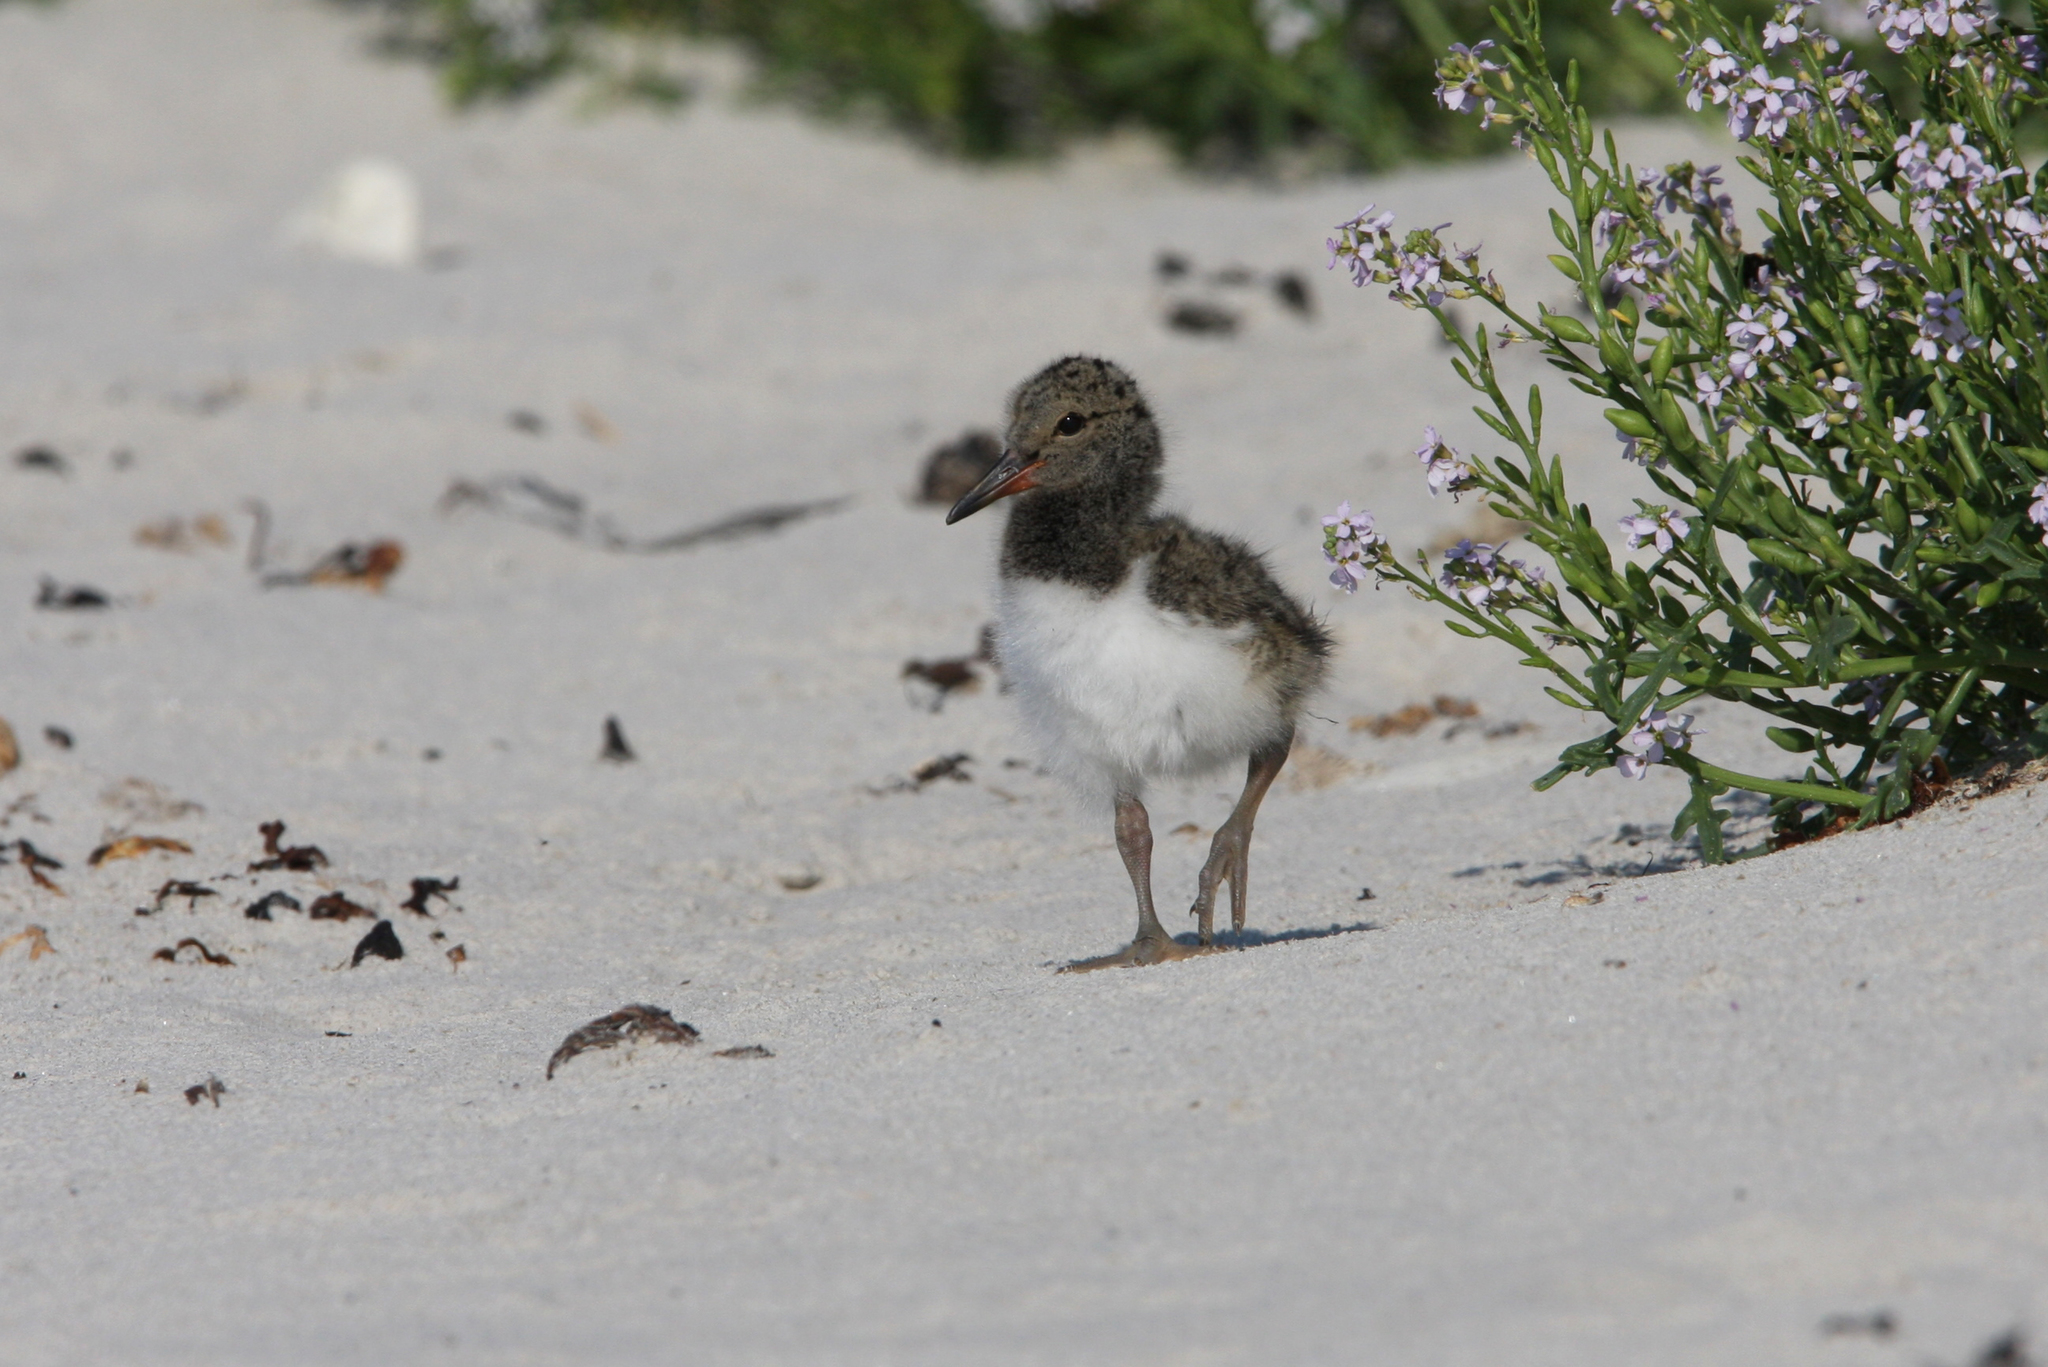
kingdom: Animalia
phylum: Chordata
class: Aves
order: Charadriiformes
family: Haematopodidae
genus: Haematopus
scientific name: Haematopus ostralegus
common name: Eurasian oystercatcher
